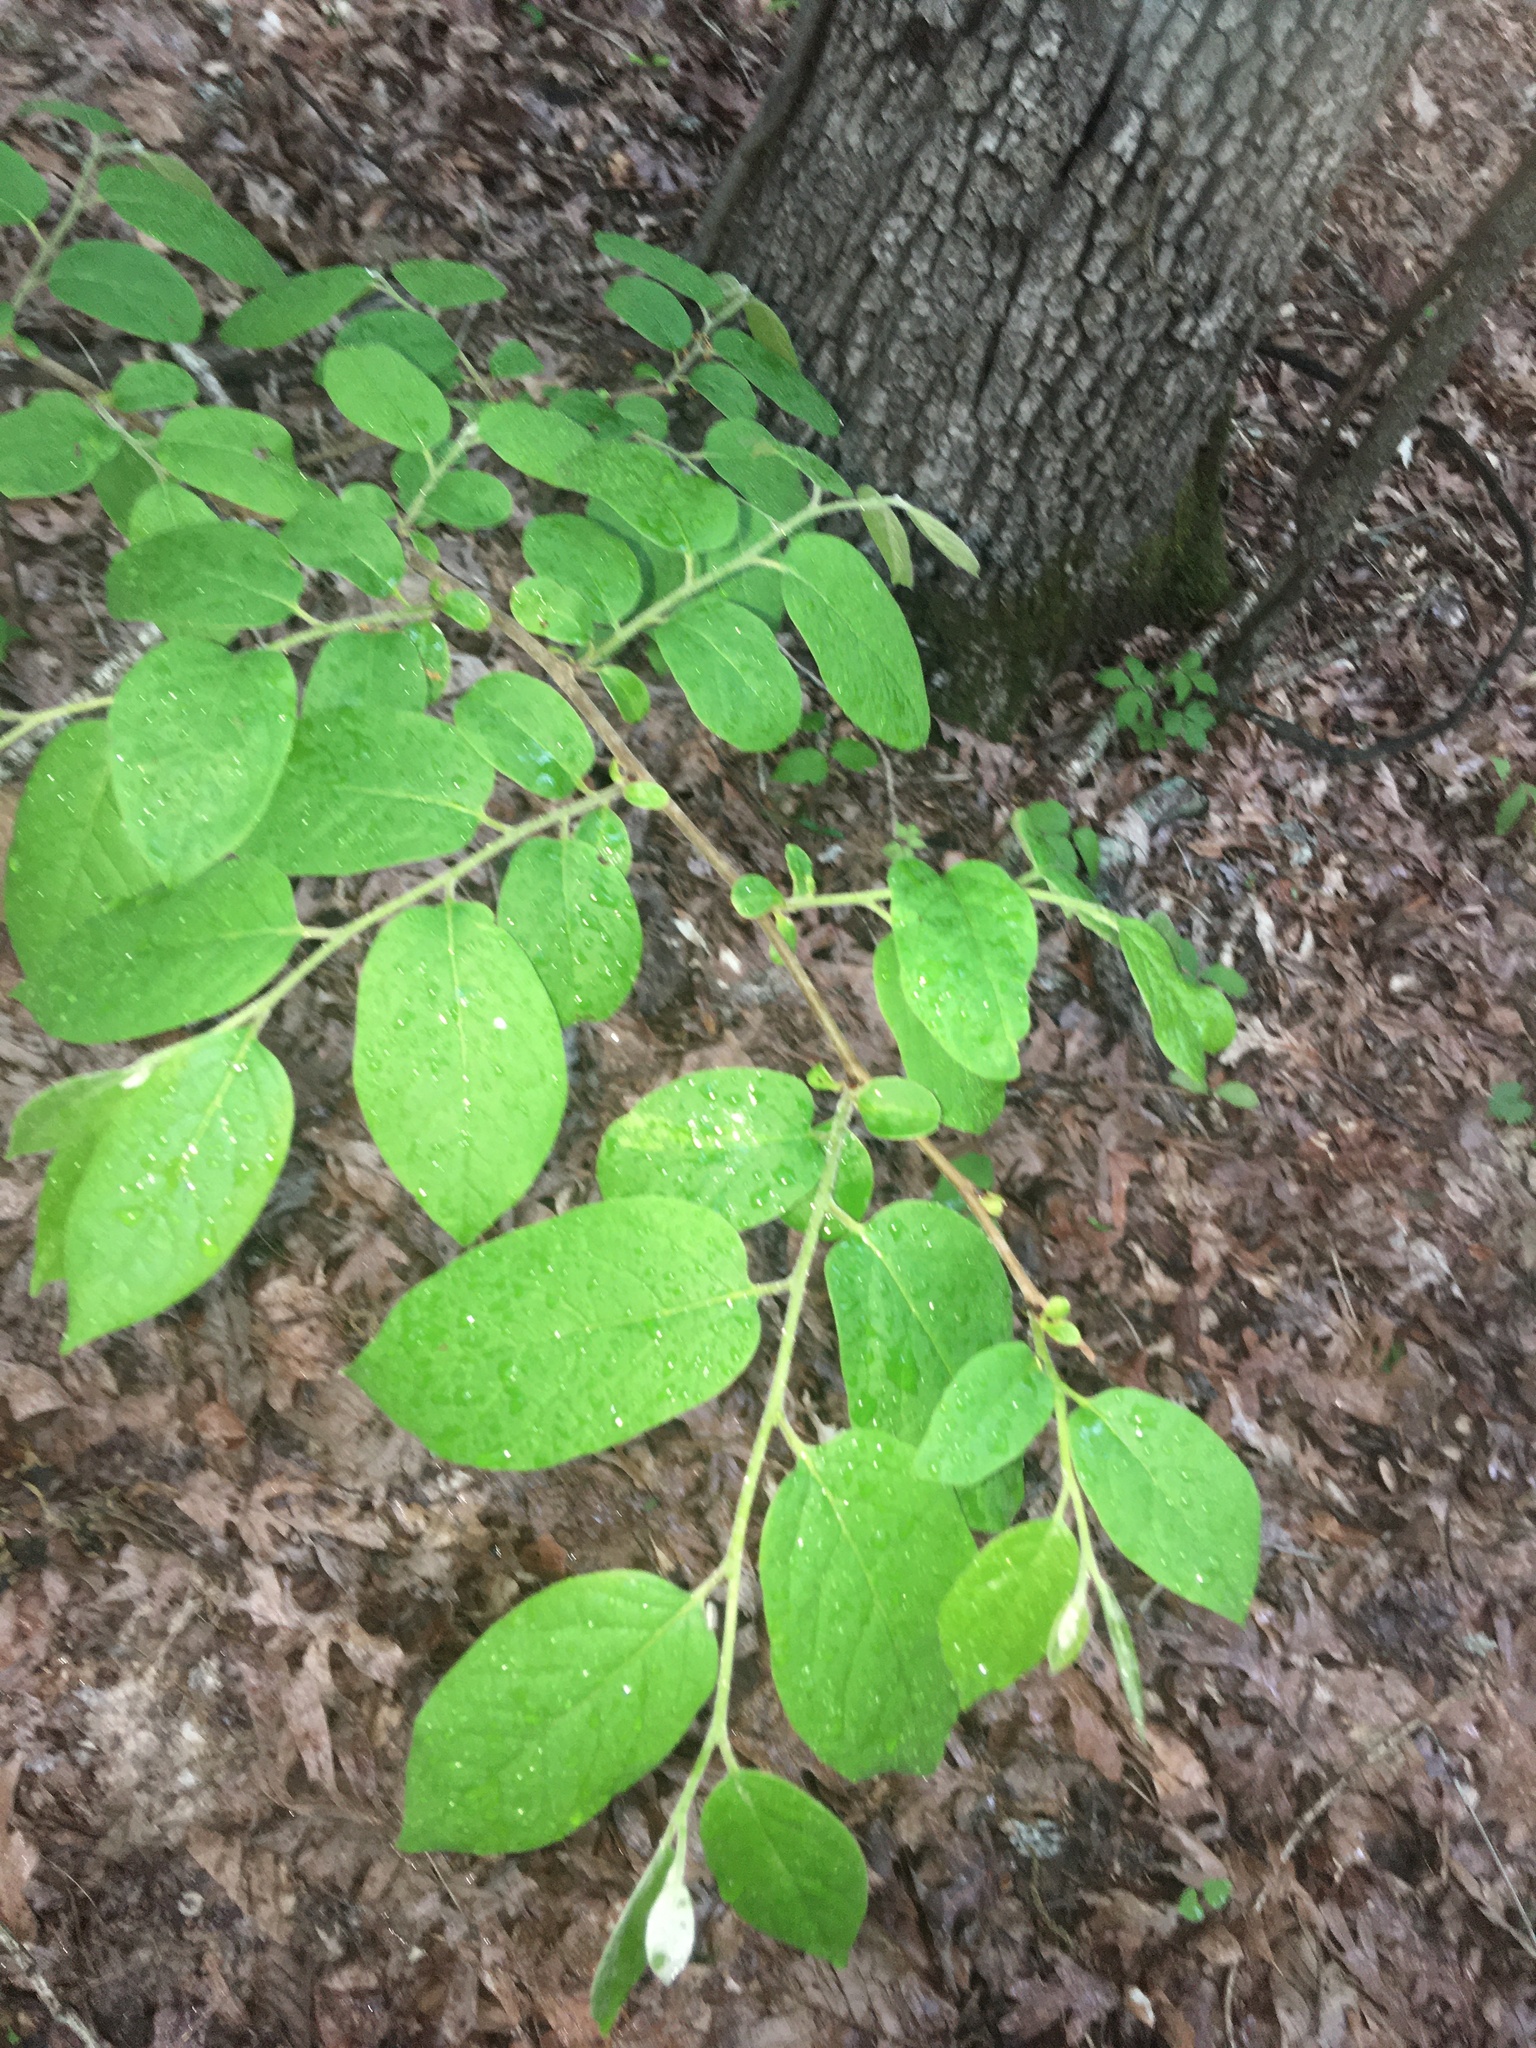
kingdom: Plantae
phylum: Tracheophyta
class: Magnoliopsida
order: Ericales
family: Ebenaceae
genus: Diospyros
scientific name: Diospyros virginiana
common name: Persimmon
